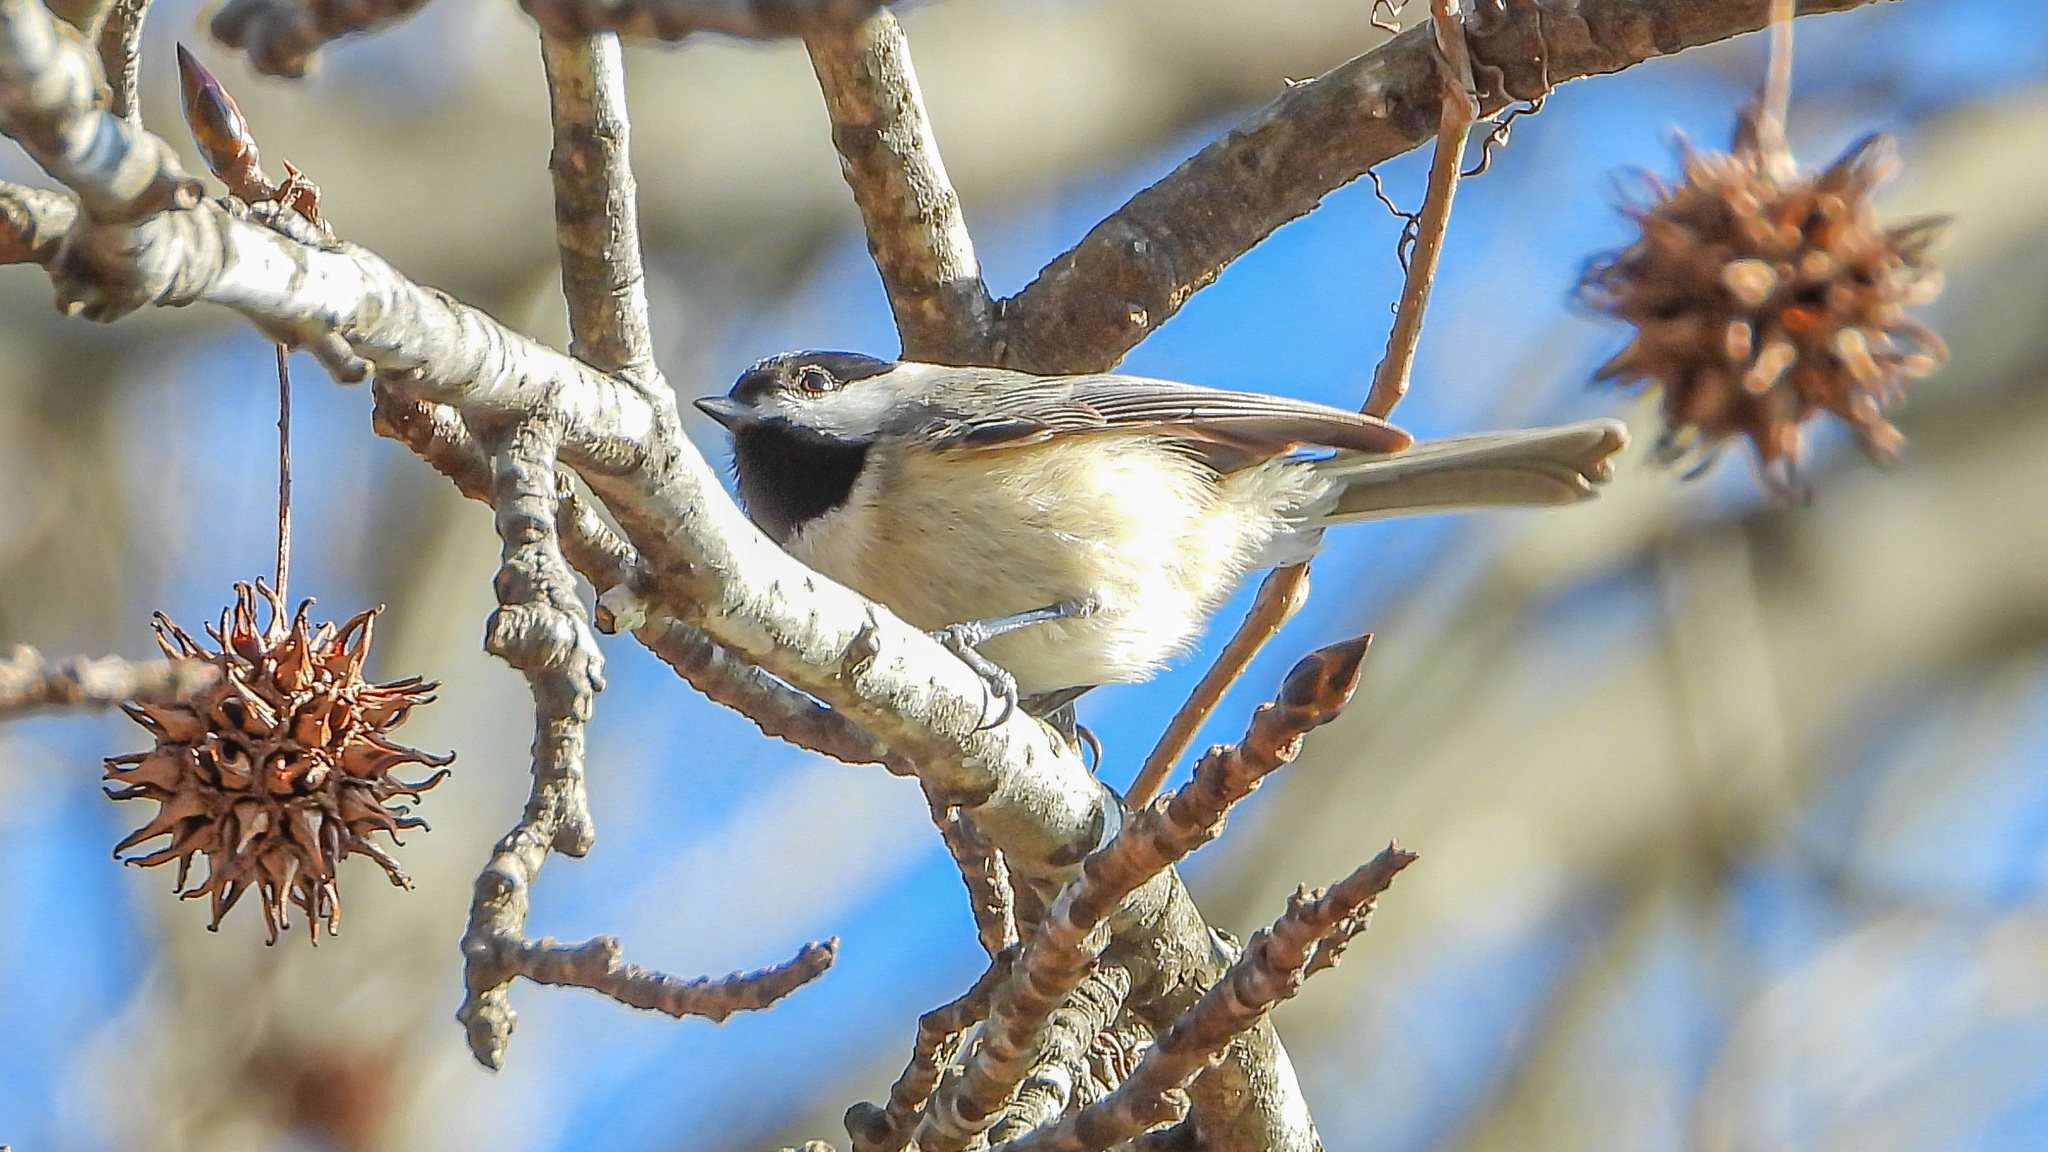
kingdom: Animalia
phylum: Chordata
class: Aves
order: Passeriformes
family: Paridae
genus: Poecile
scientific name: Poecile carolinensis
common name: Carolina chickadee
